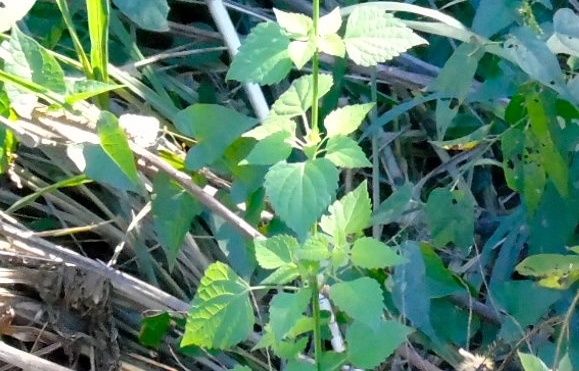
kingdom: Plantae
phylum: Tracheophyta
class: Magnoliopsida
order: Lamiales
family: Lamiaceae
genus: Salvia
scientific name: Salvia languidula
